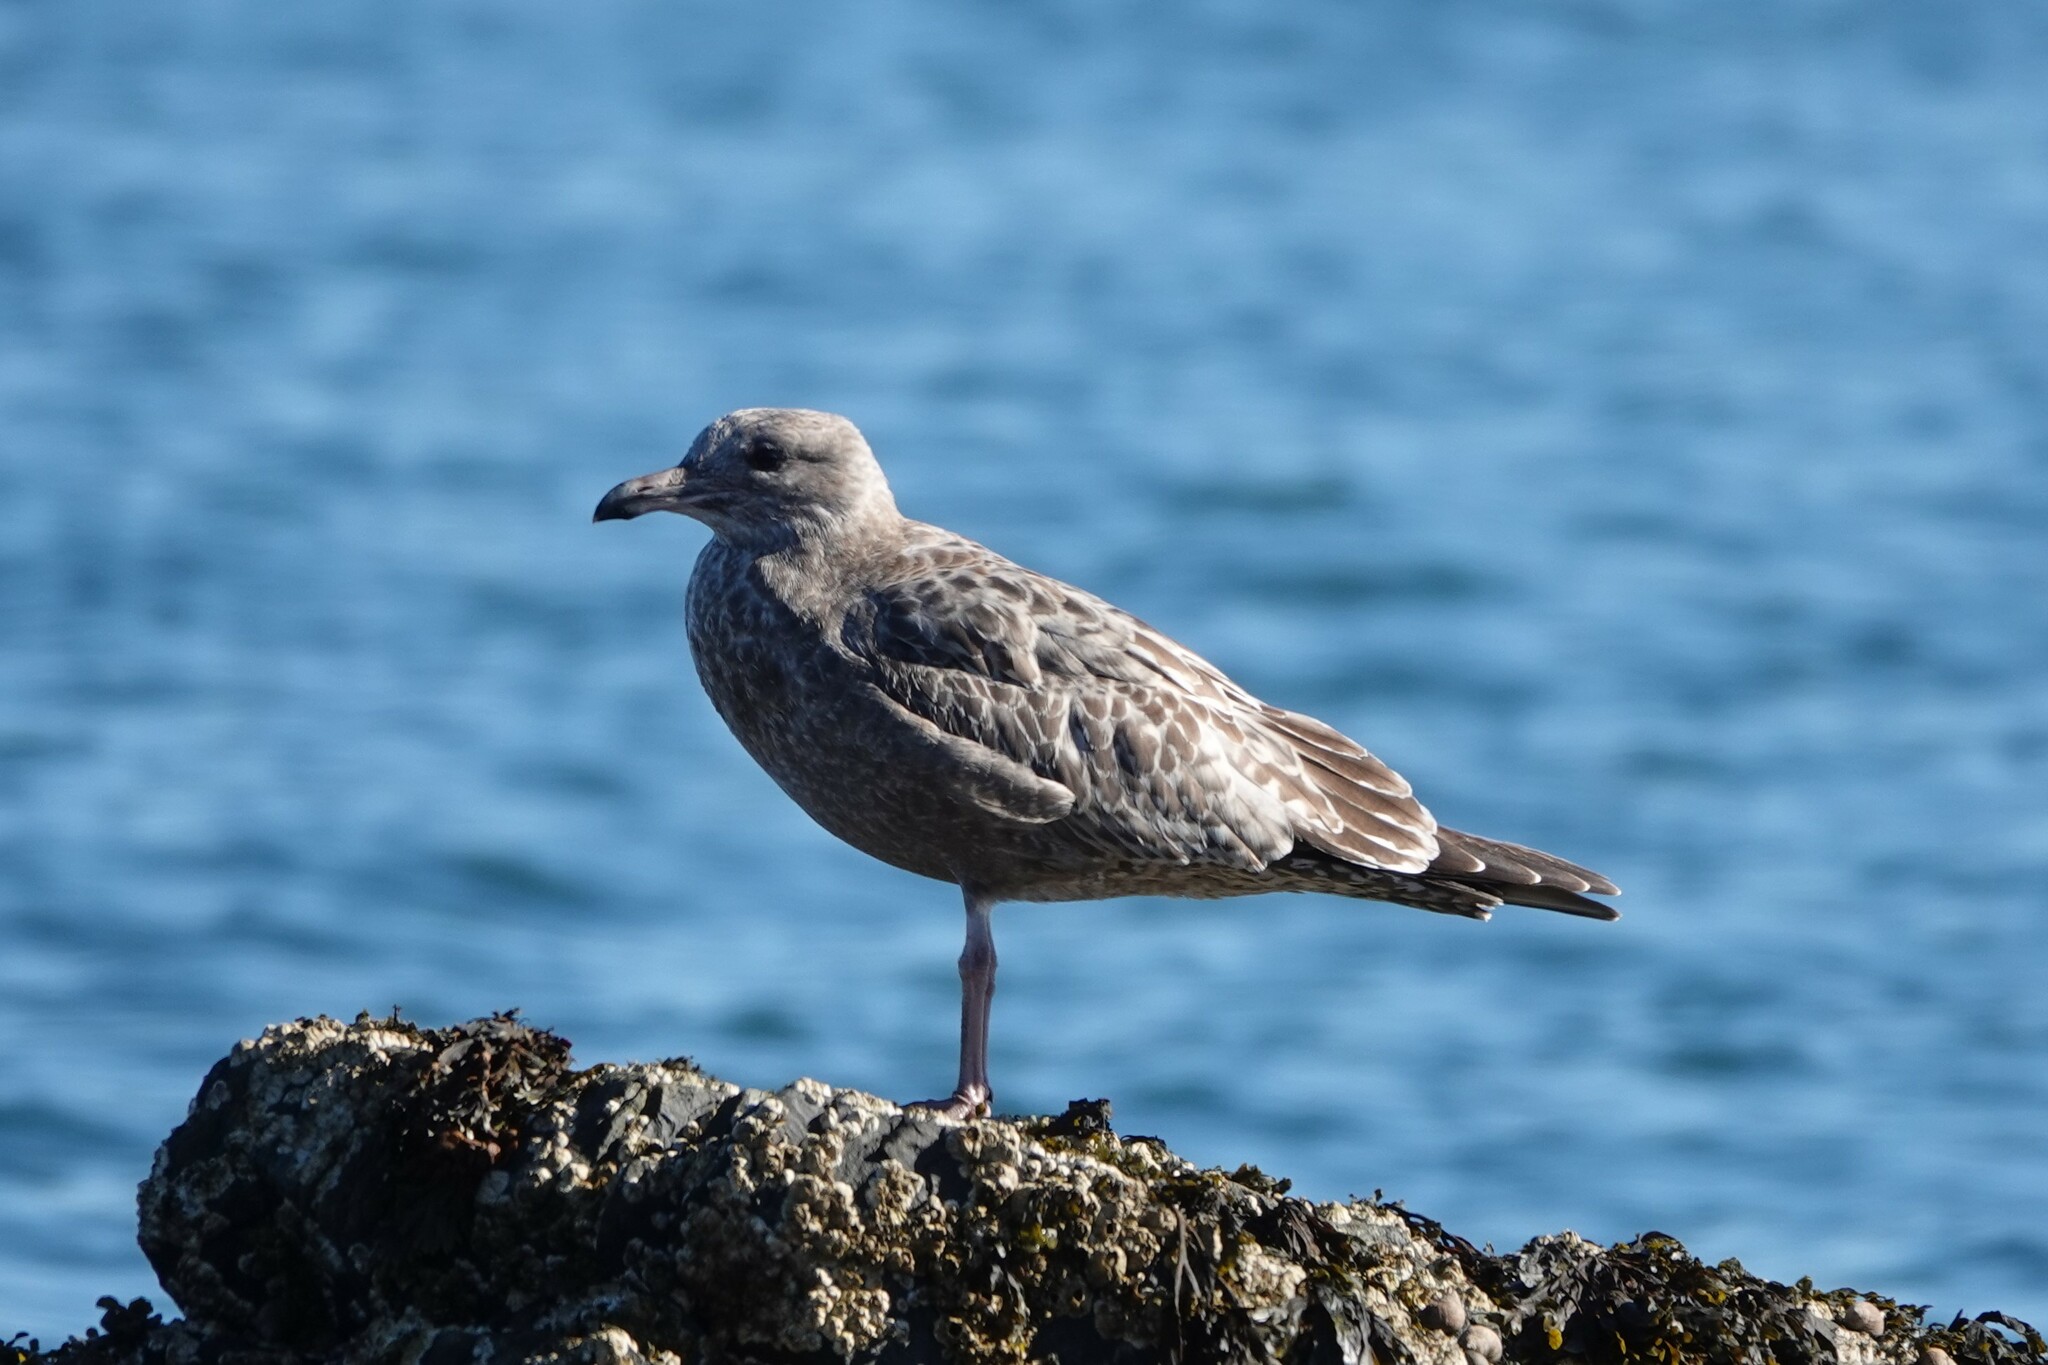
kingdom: Animalia
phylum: Chordata
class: Aves
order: Charadriiformes
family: Laridae
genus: Larus
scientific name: Larus argentatus
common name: Herring gull
